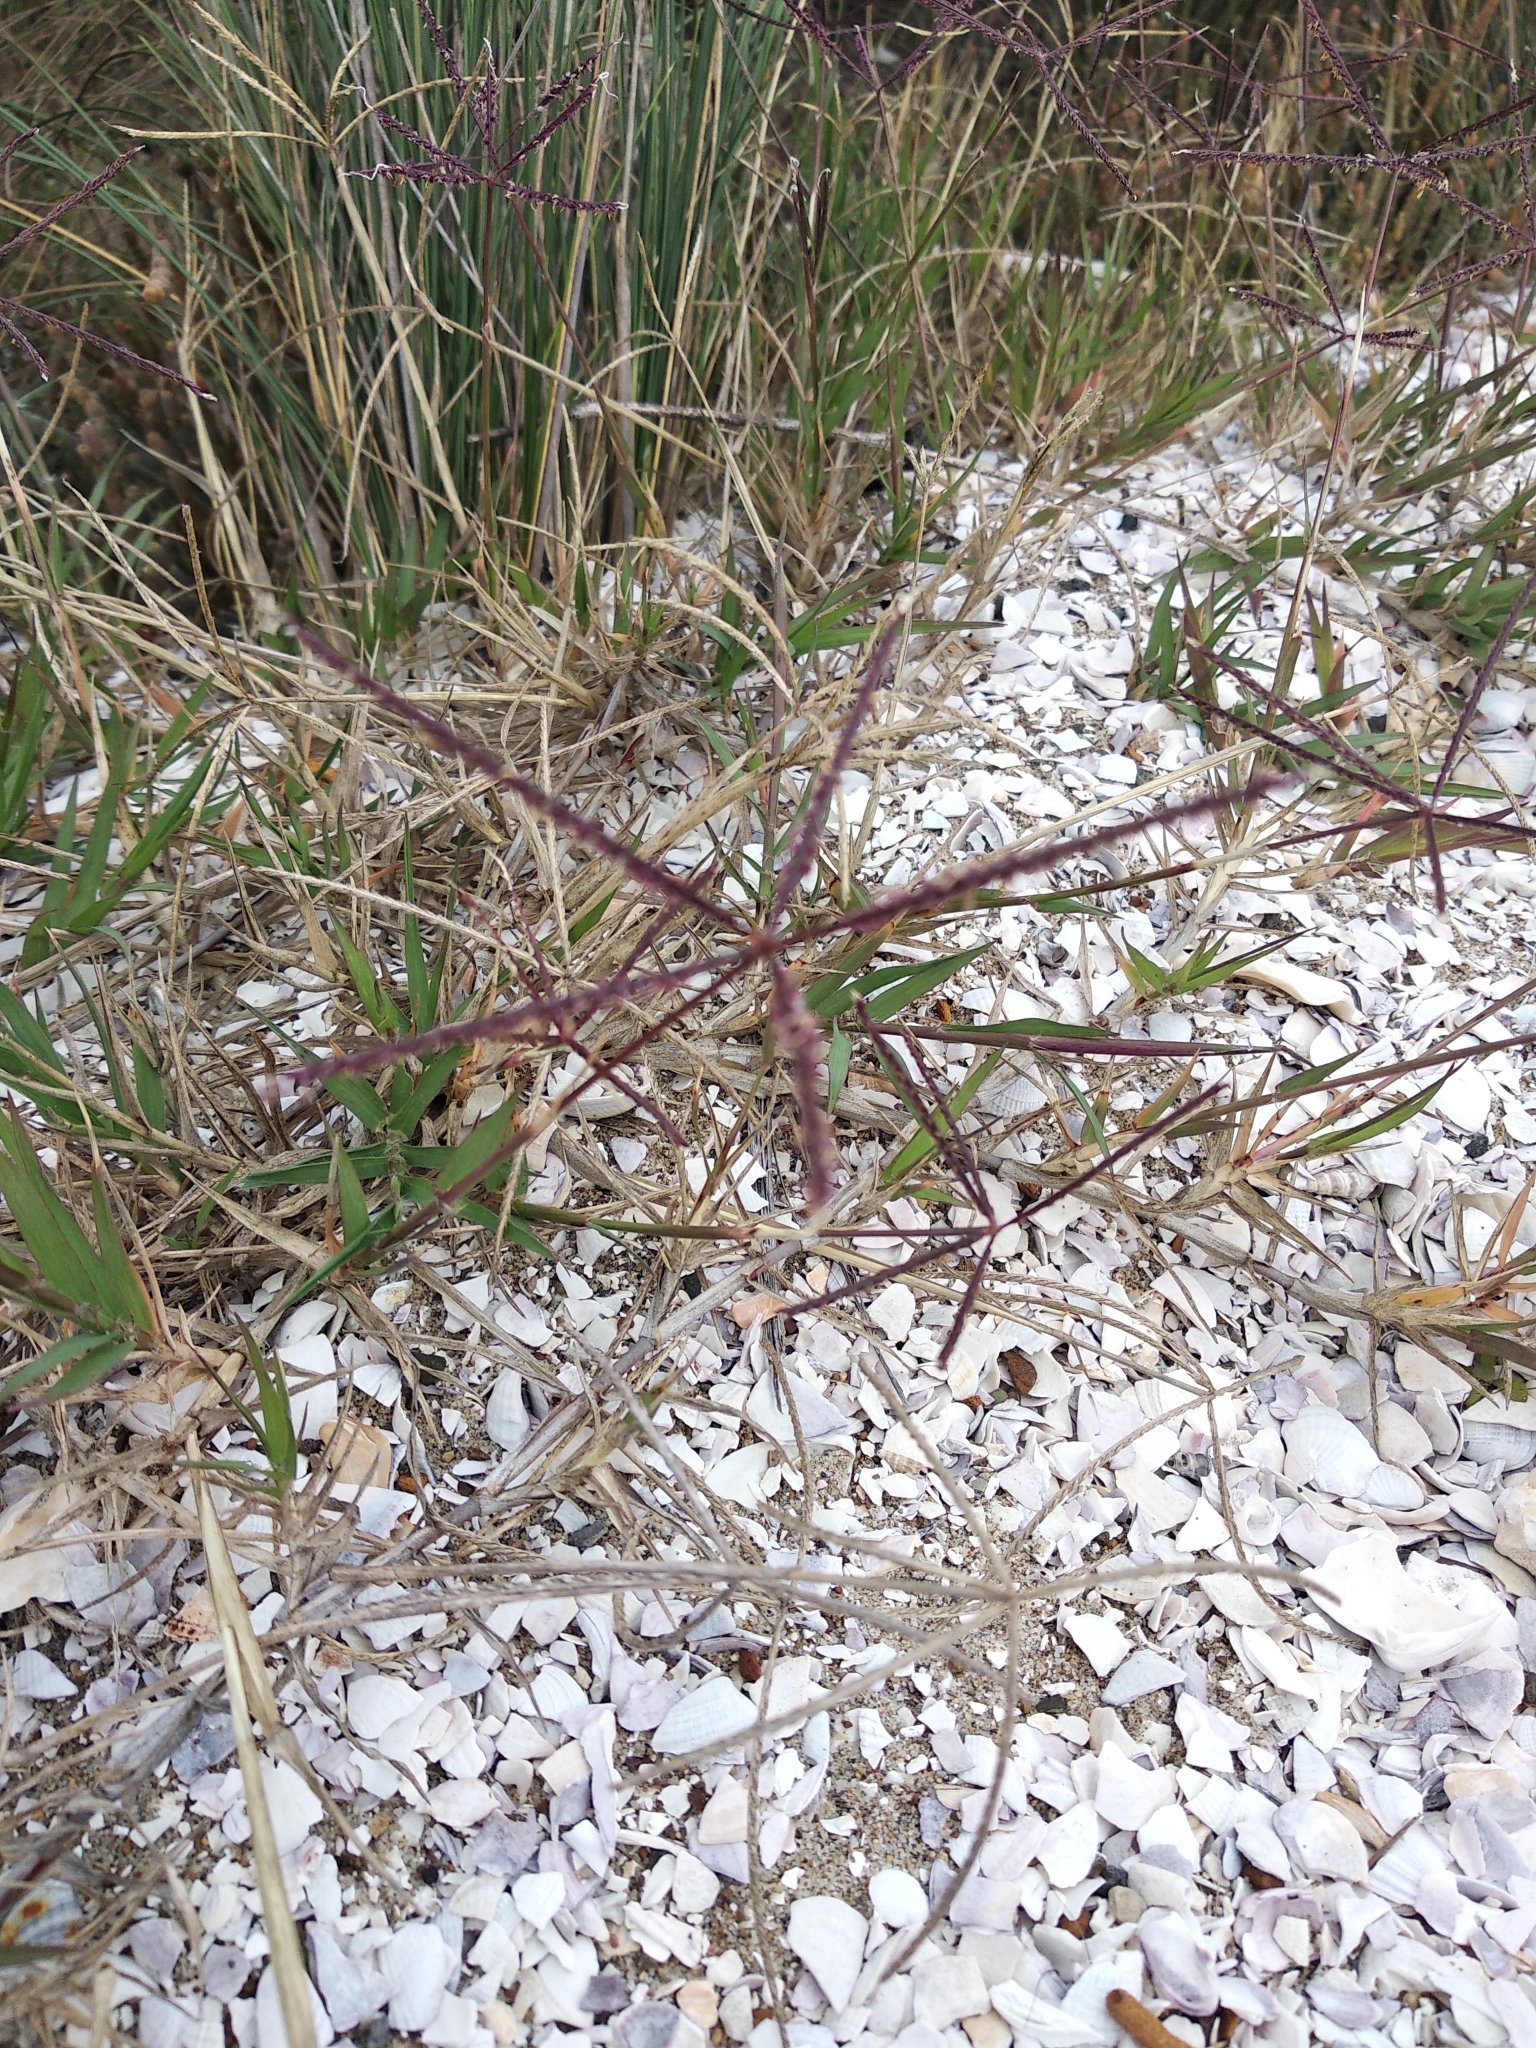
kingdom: Plantae
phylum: Tracheophyta
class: Liliopsida
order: Poales
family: Poaceae
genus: Cynodon
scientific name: Cynodon dactylon
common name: Bermuda grass
